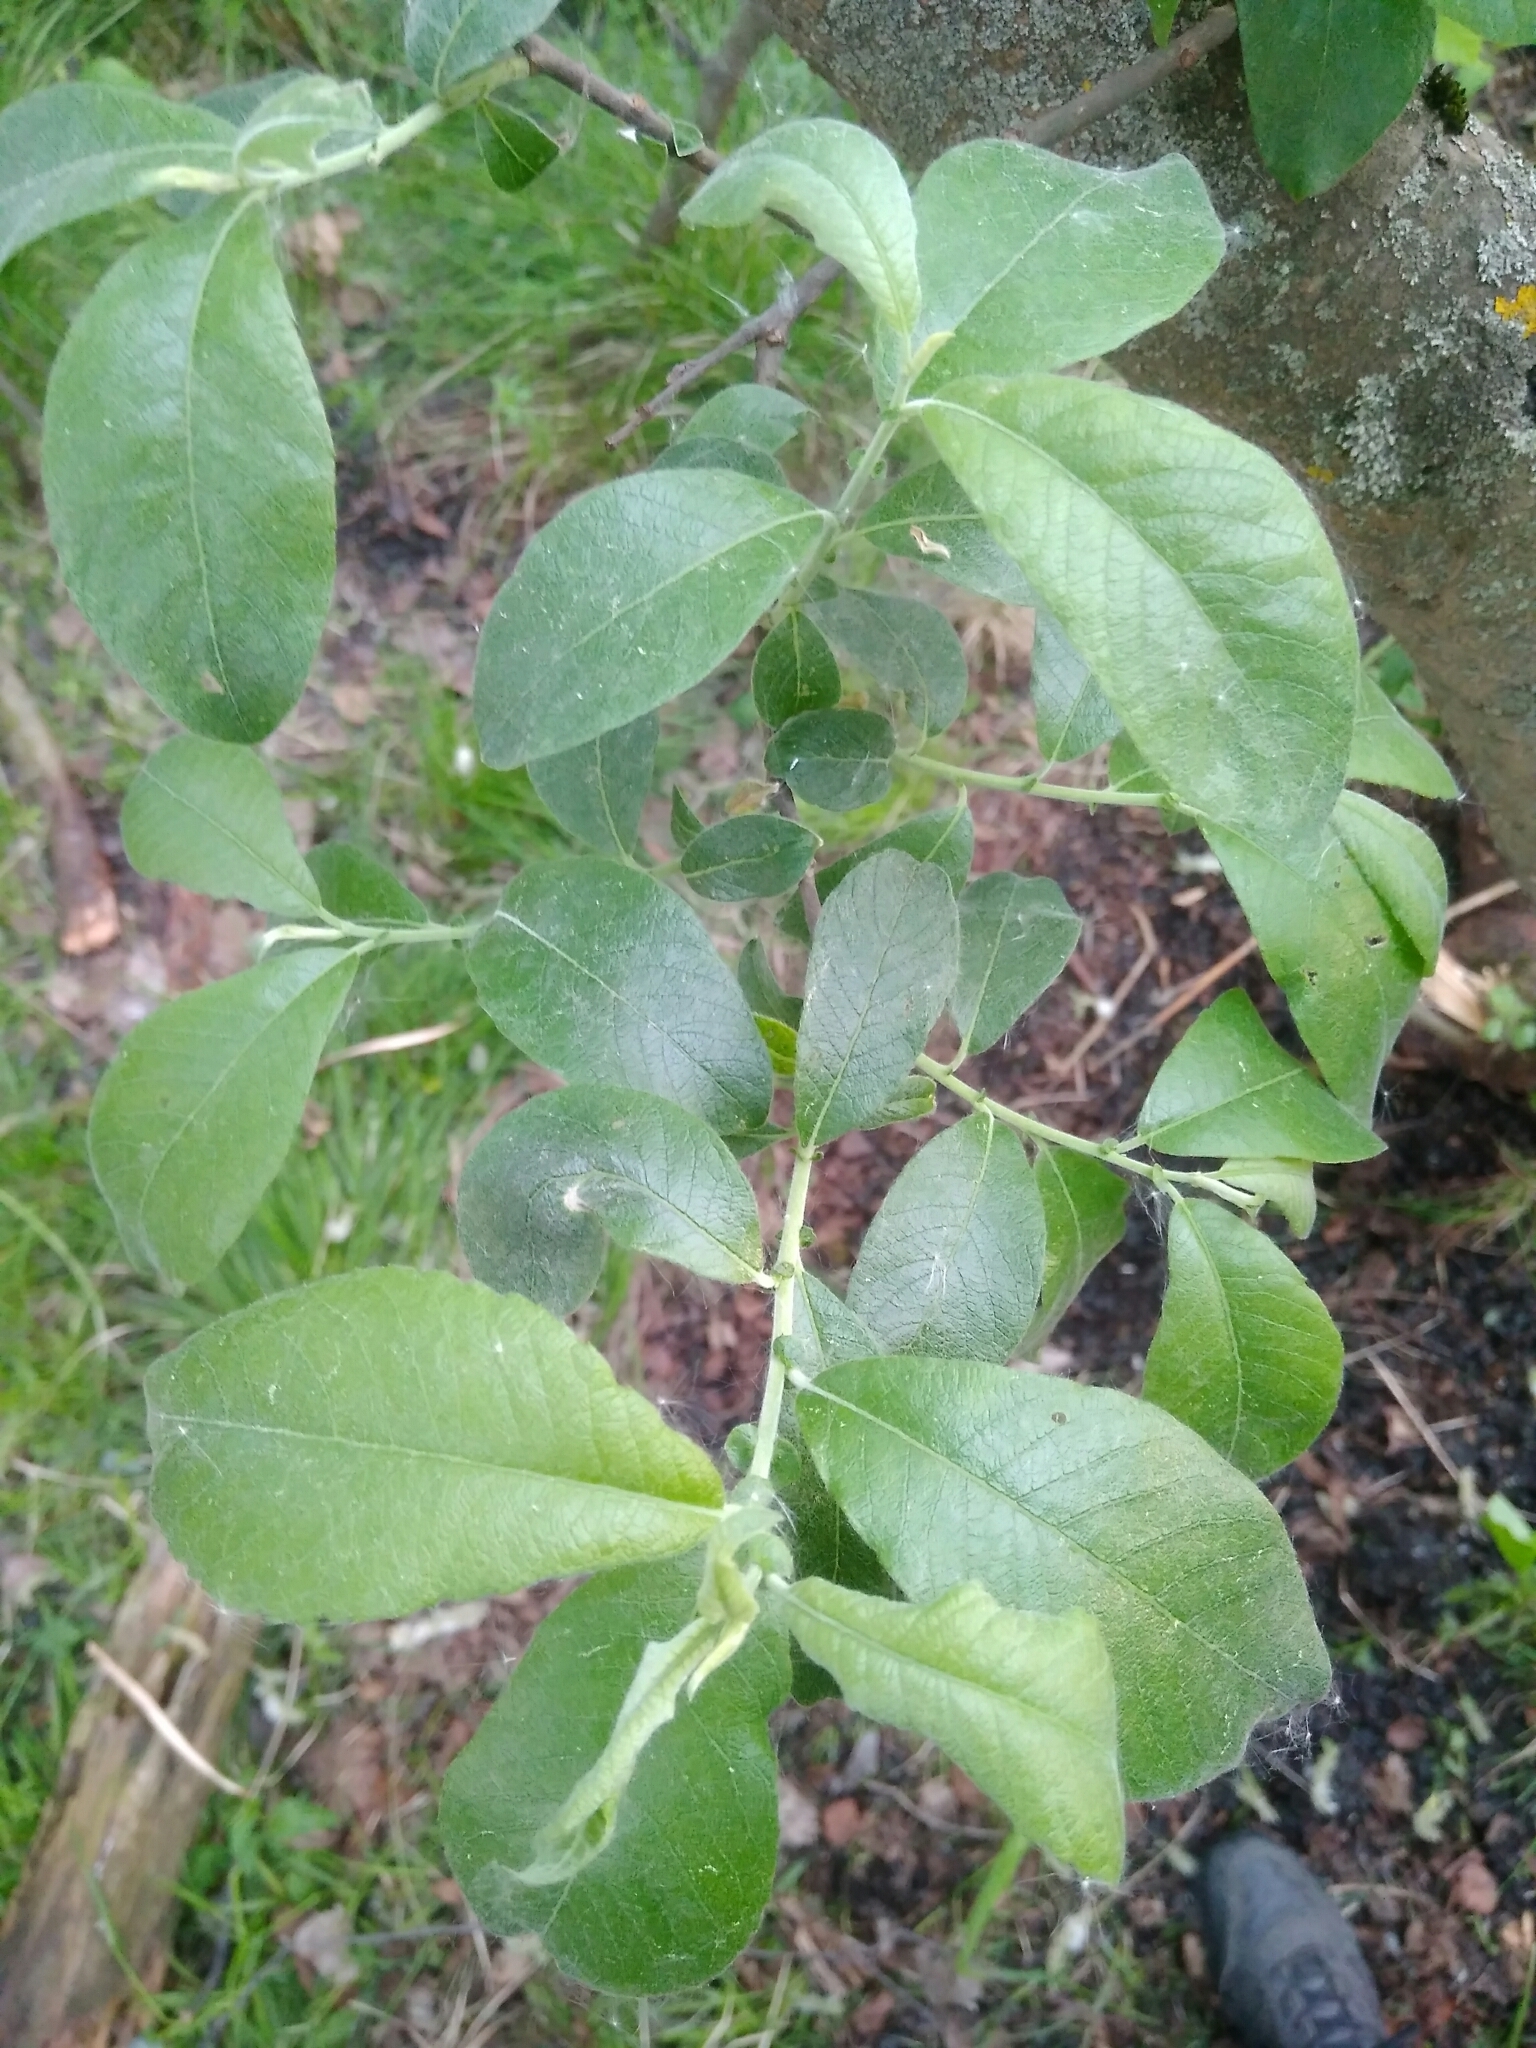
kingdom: Plantae
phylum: Tracheophyta
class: Magnoliopsida
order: Malpighiales
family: Salicaceae
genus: Salix
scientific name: Salix caprea
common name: Goat willow
